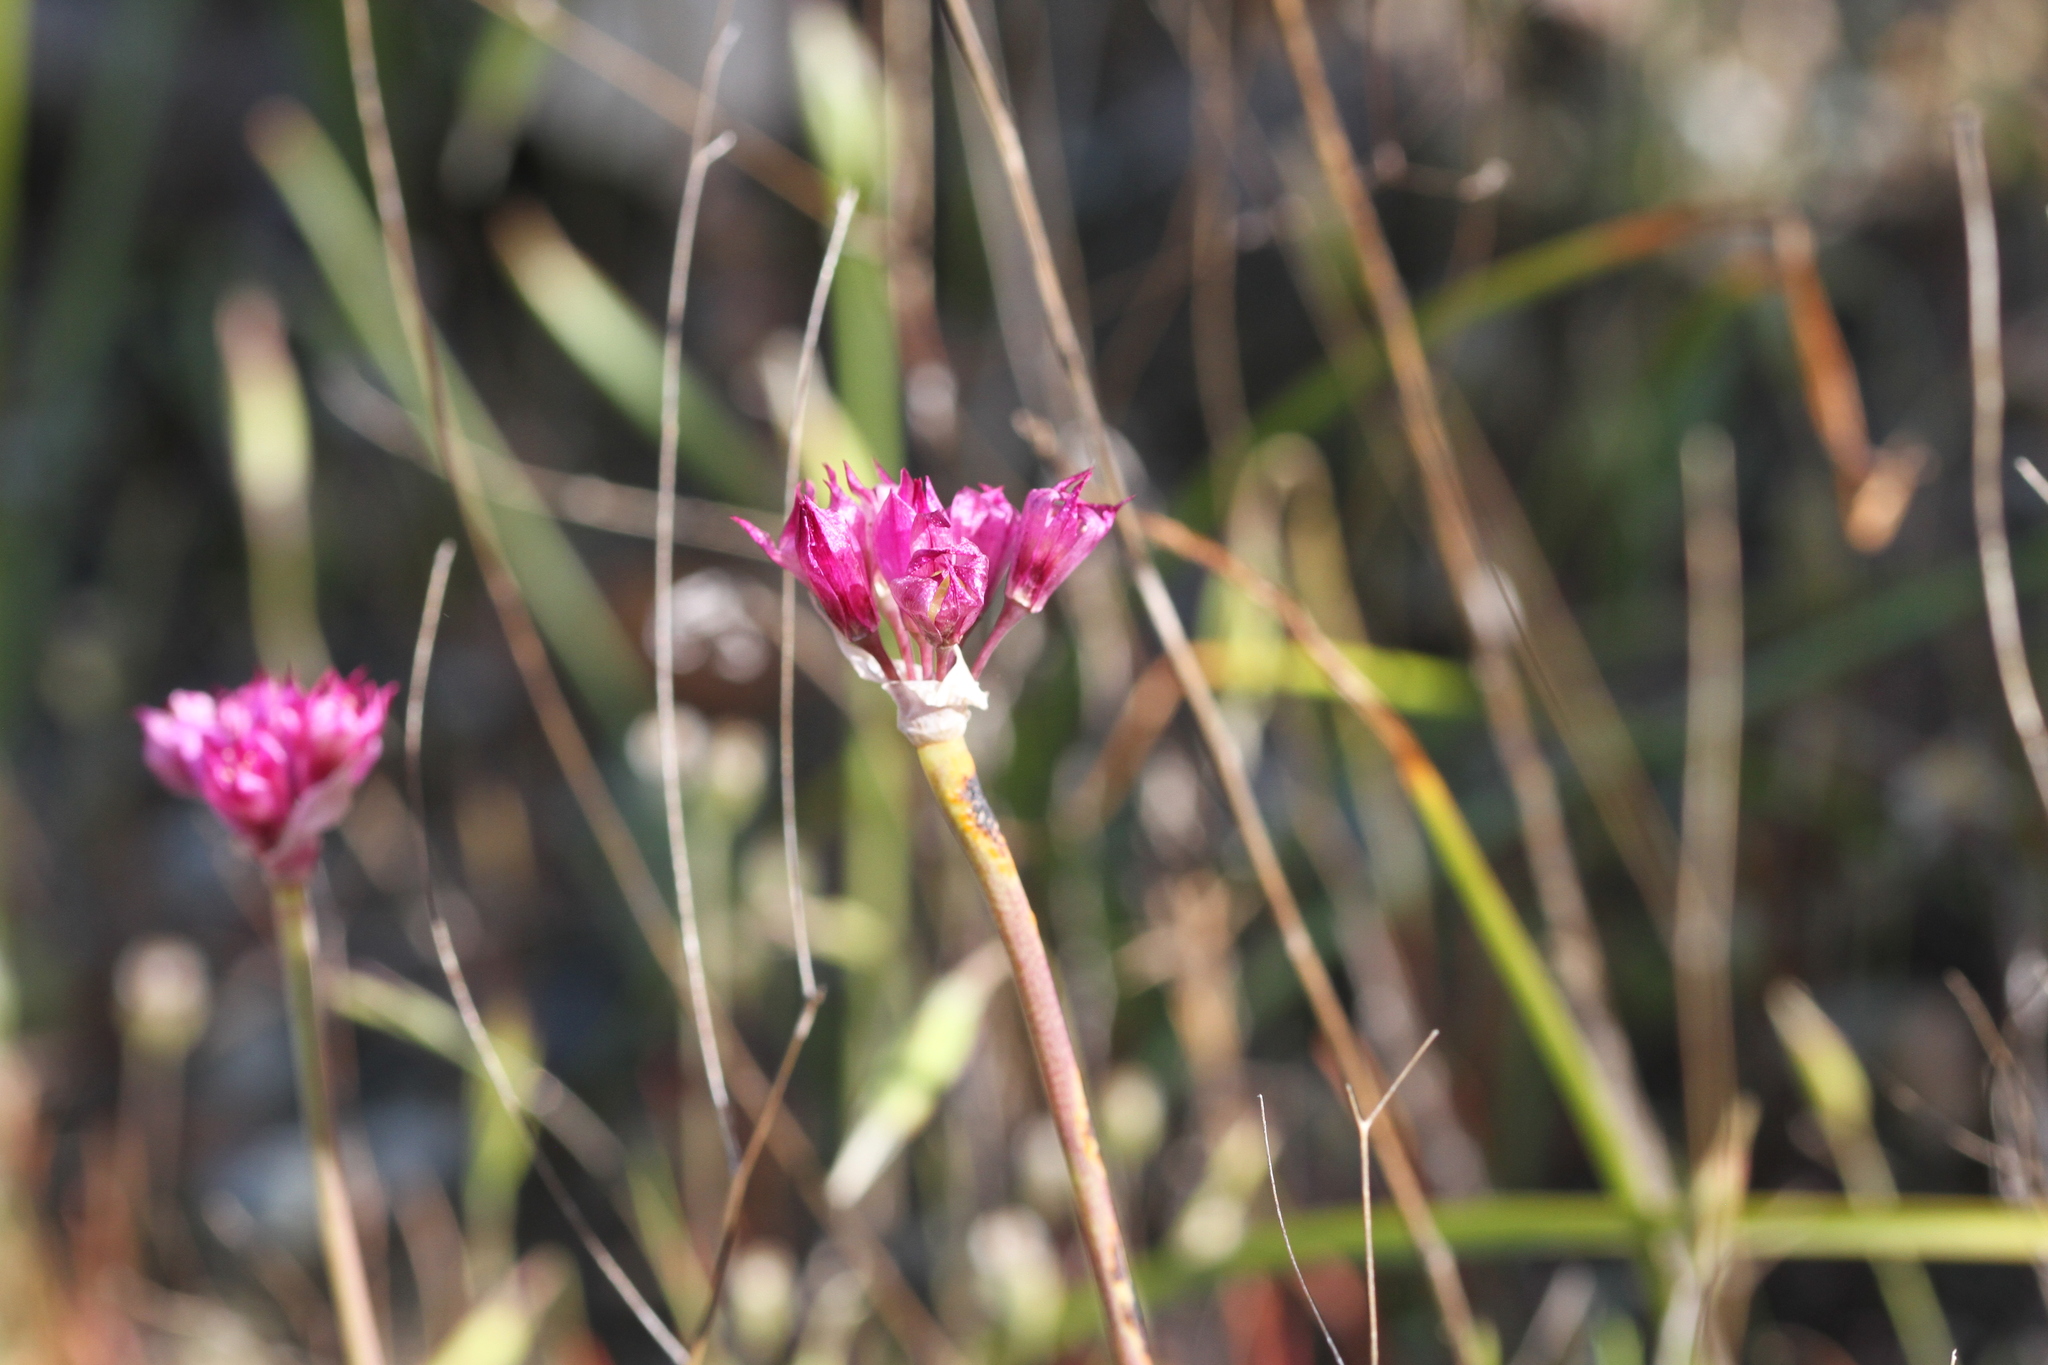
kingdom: Plantae
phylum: Tracheophyta
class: Liliopsida
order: Asparagales
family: Amaryllidaceae
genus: Allium
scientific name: Allium serra
